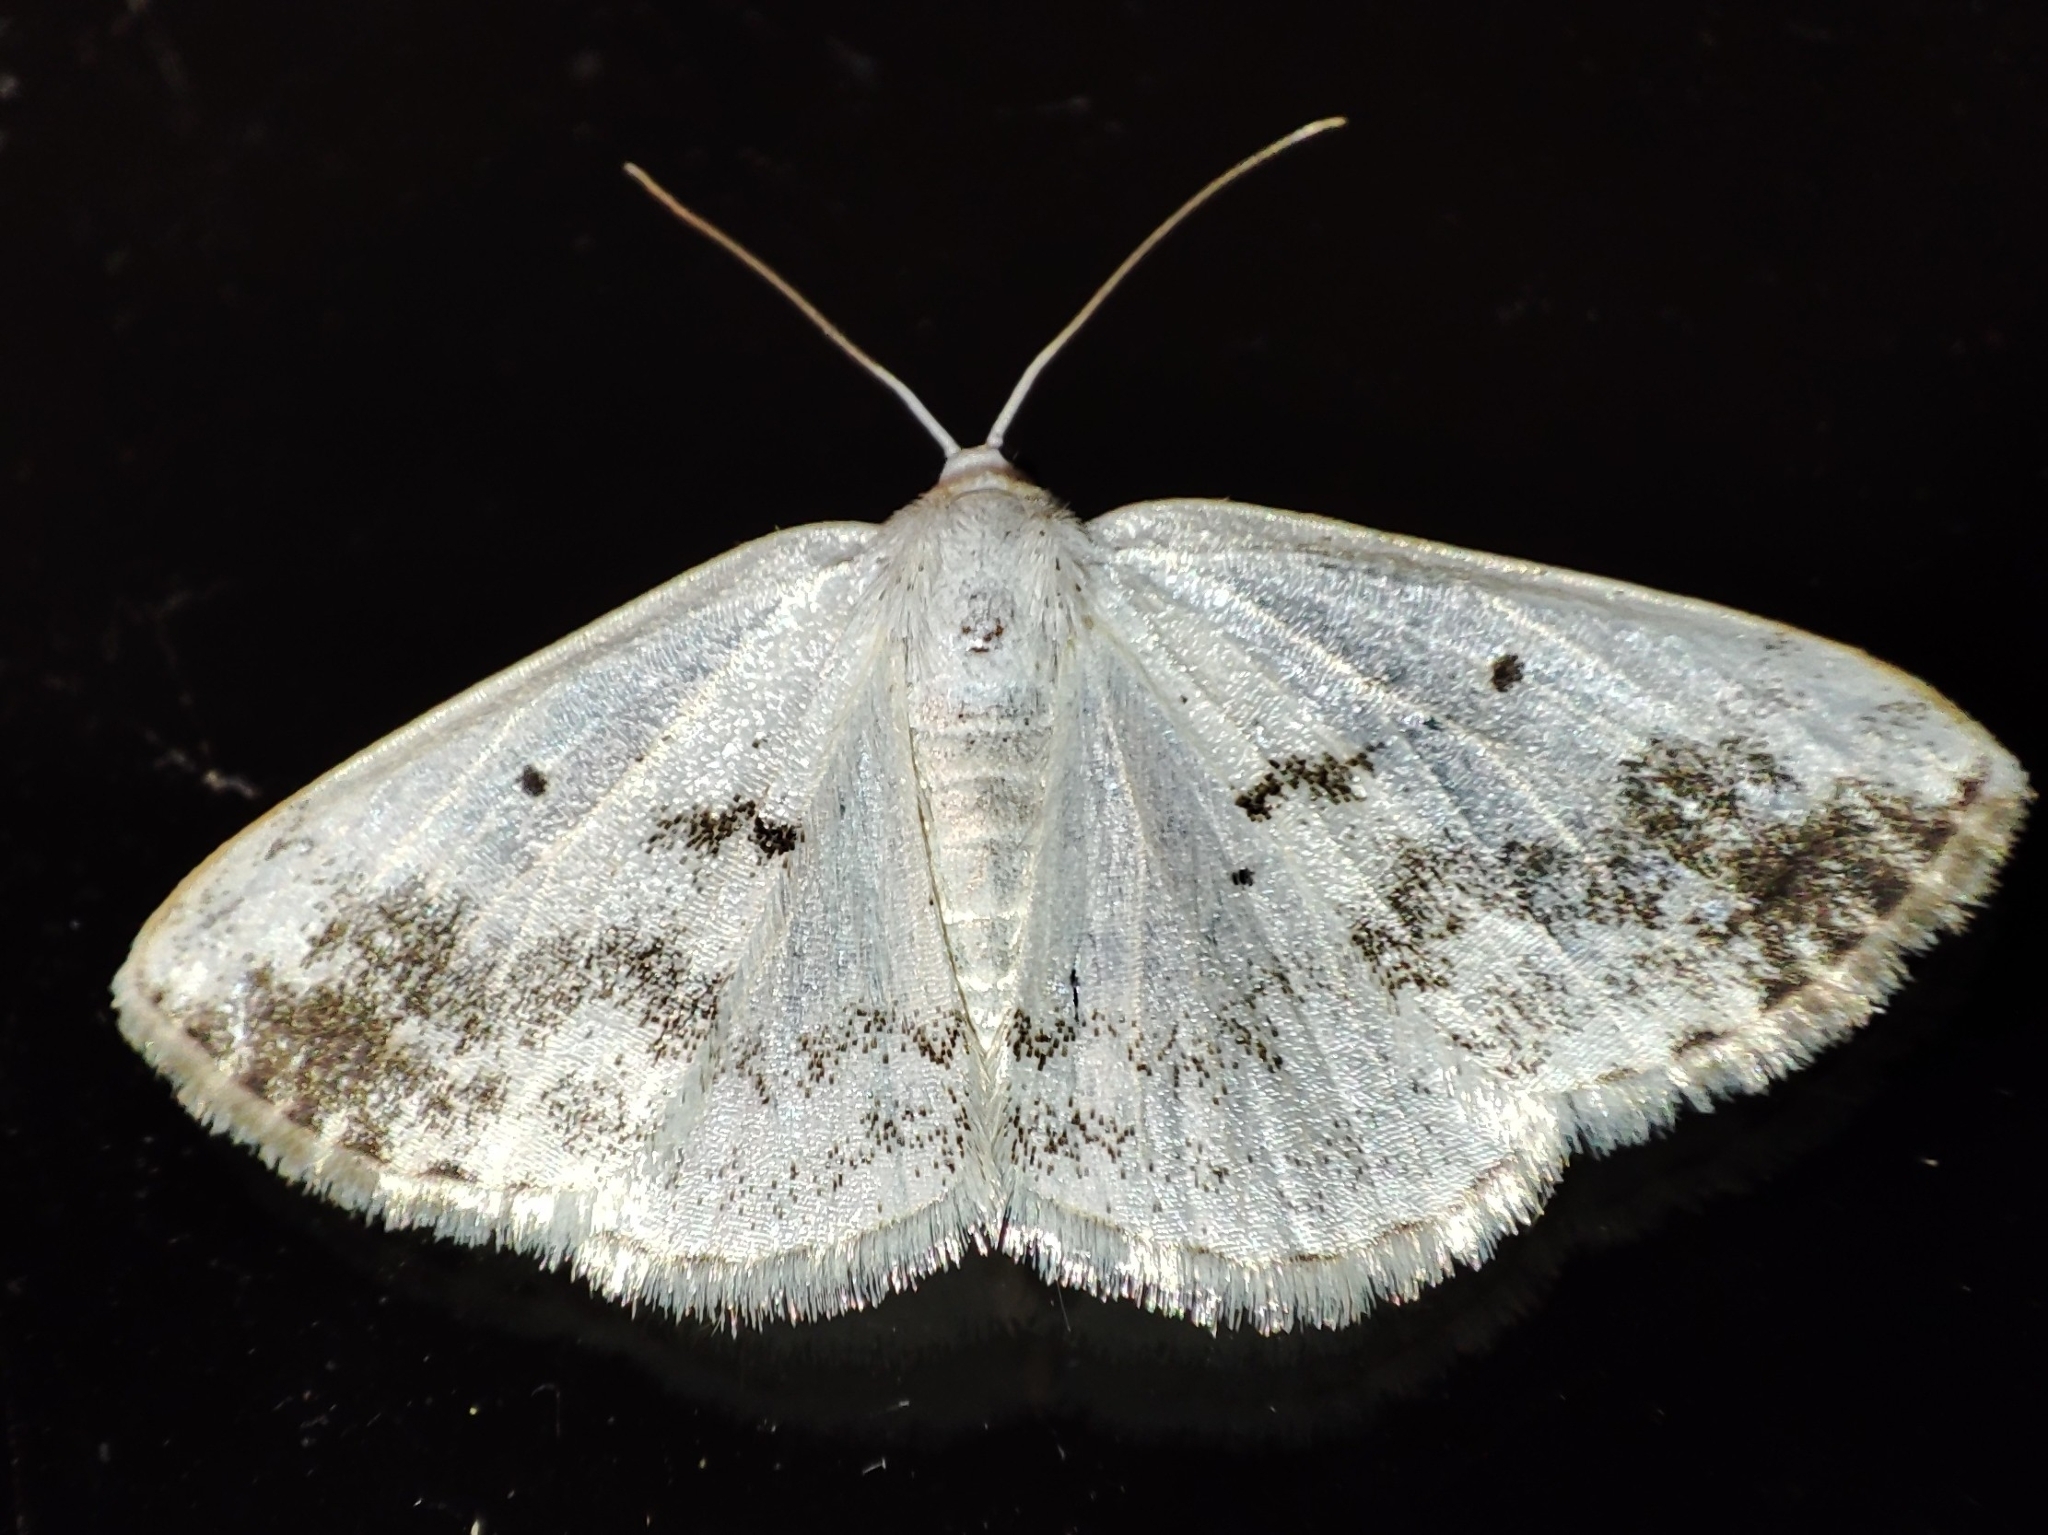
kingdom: Animalia
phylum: Arthropoda
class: Insecta
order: Lepidoptera
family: Geometridae
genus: Lomographa
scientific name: Lomographa temerata
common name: Clouded silver
